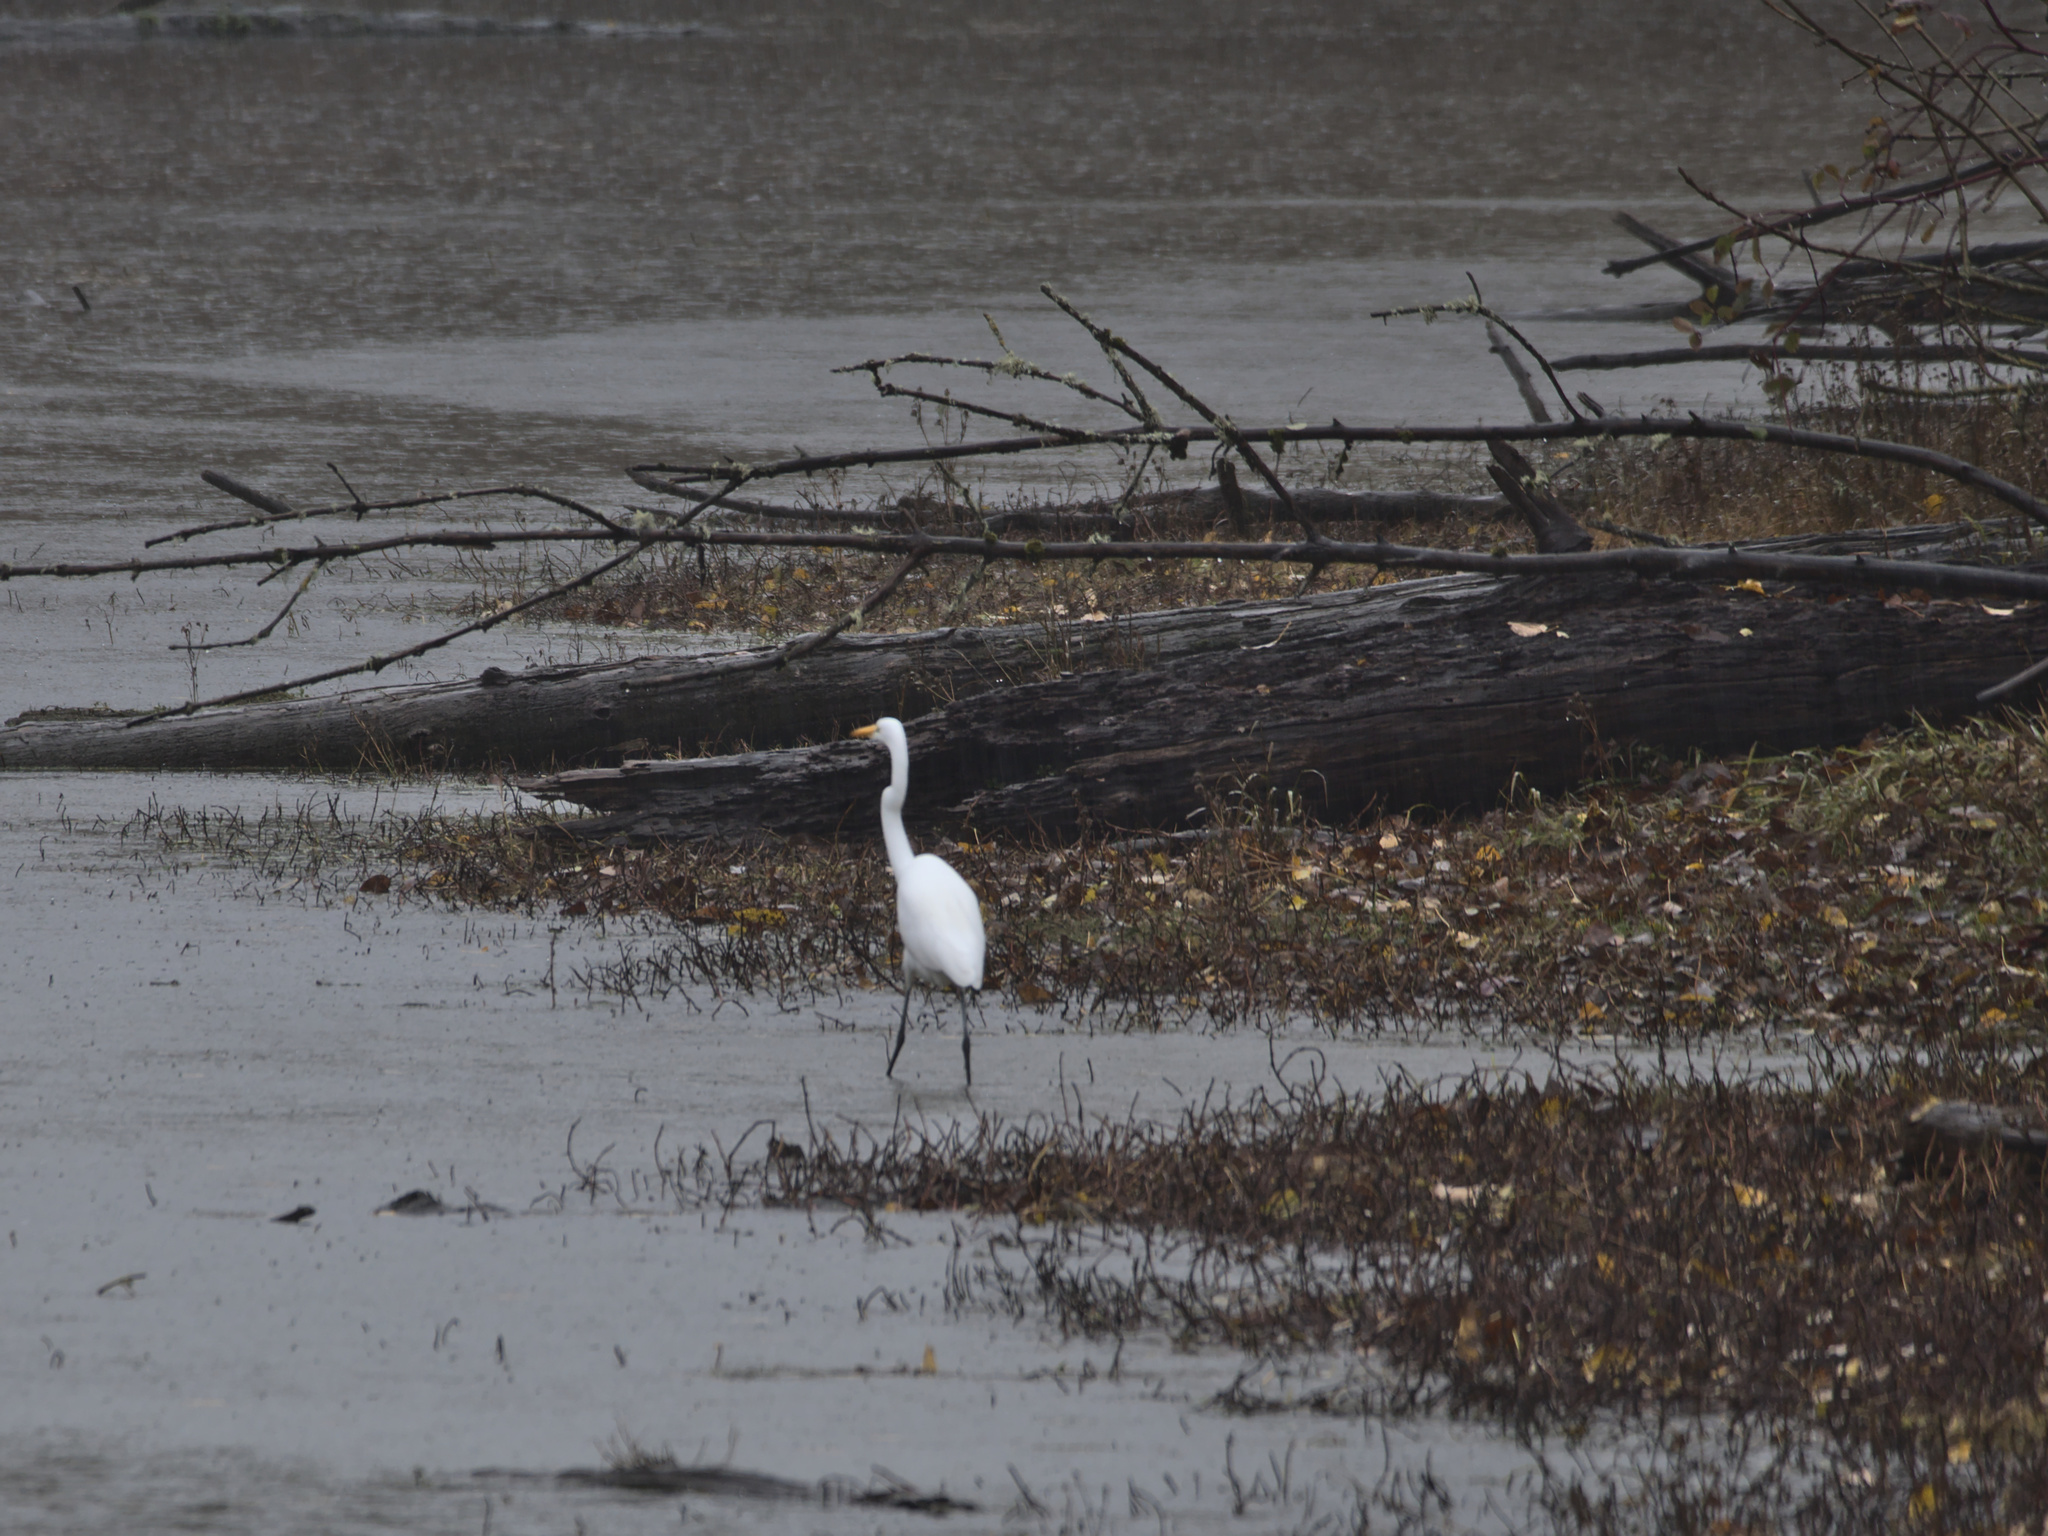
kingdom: Animalia
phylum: Chordata
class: Aves
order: Pelecaniformes
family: Ardeidae
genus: Ardea
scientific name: Ardea alba
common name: Great egret
